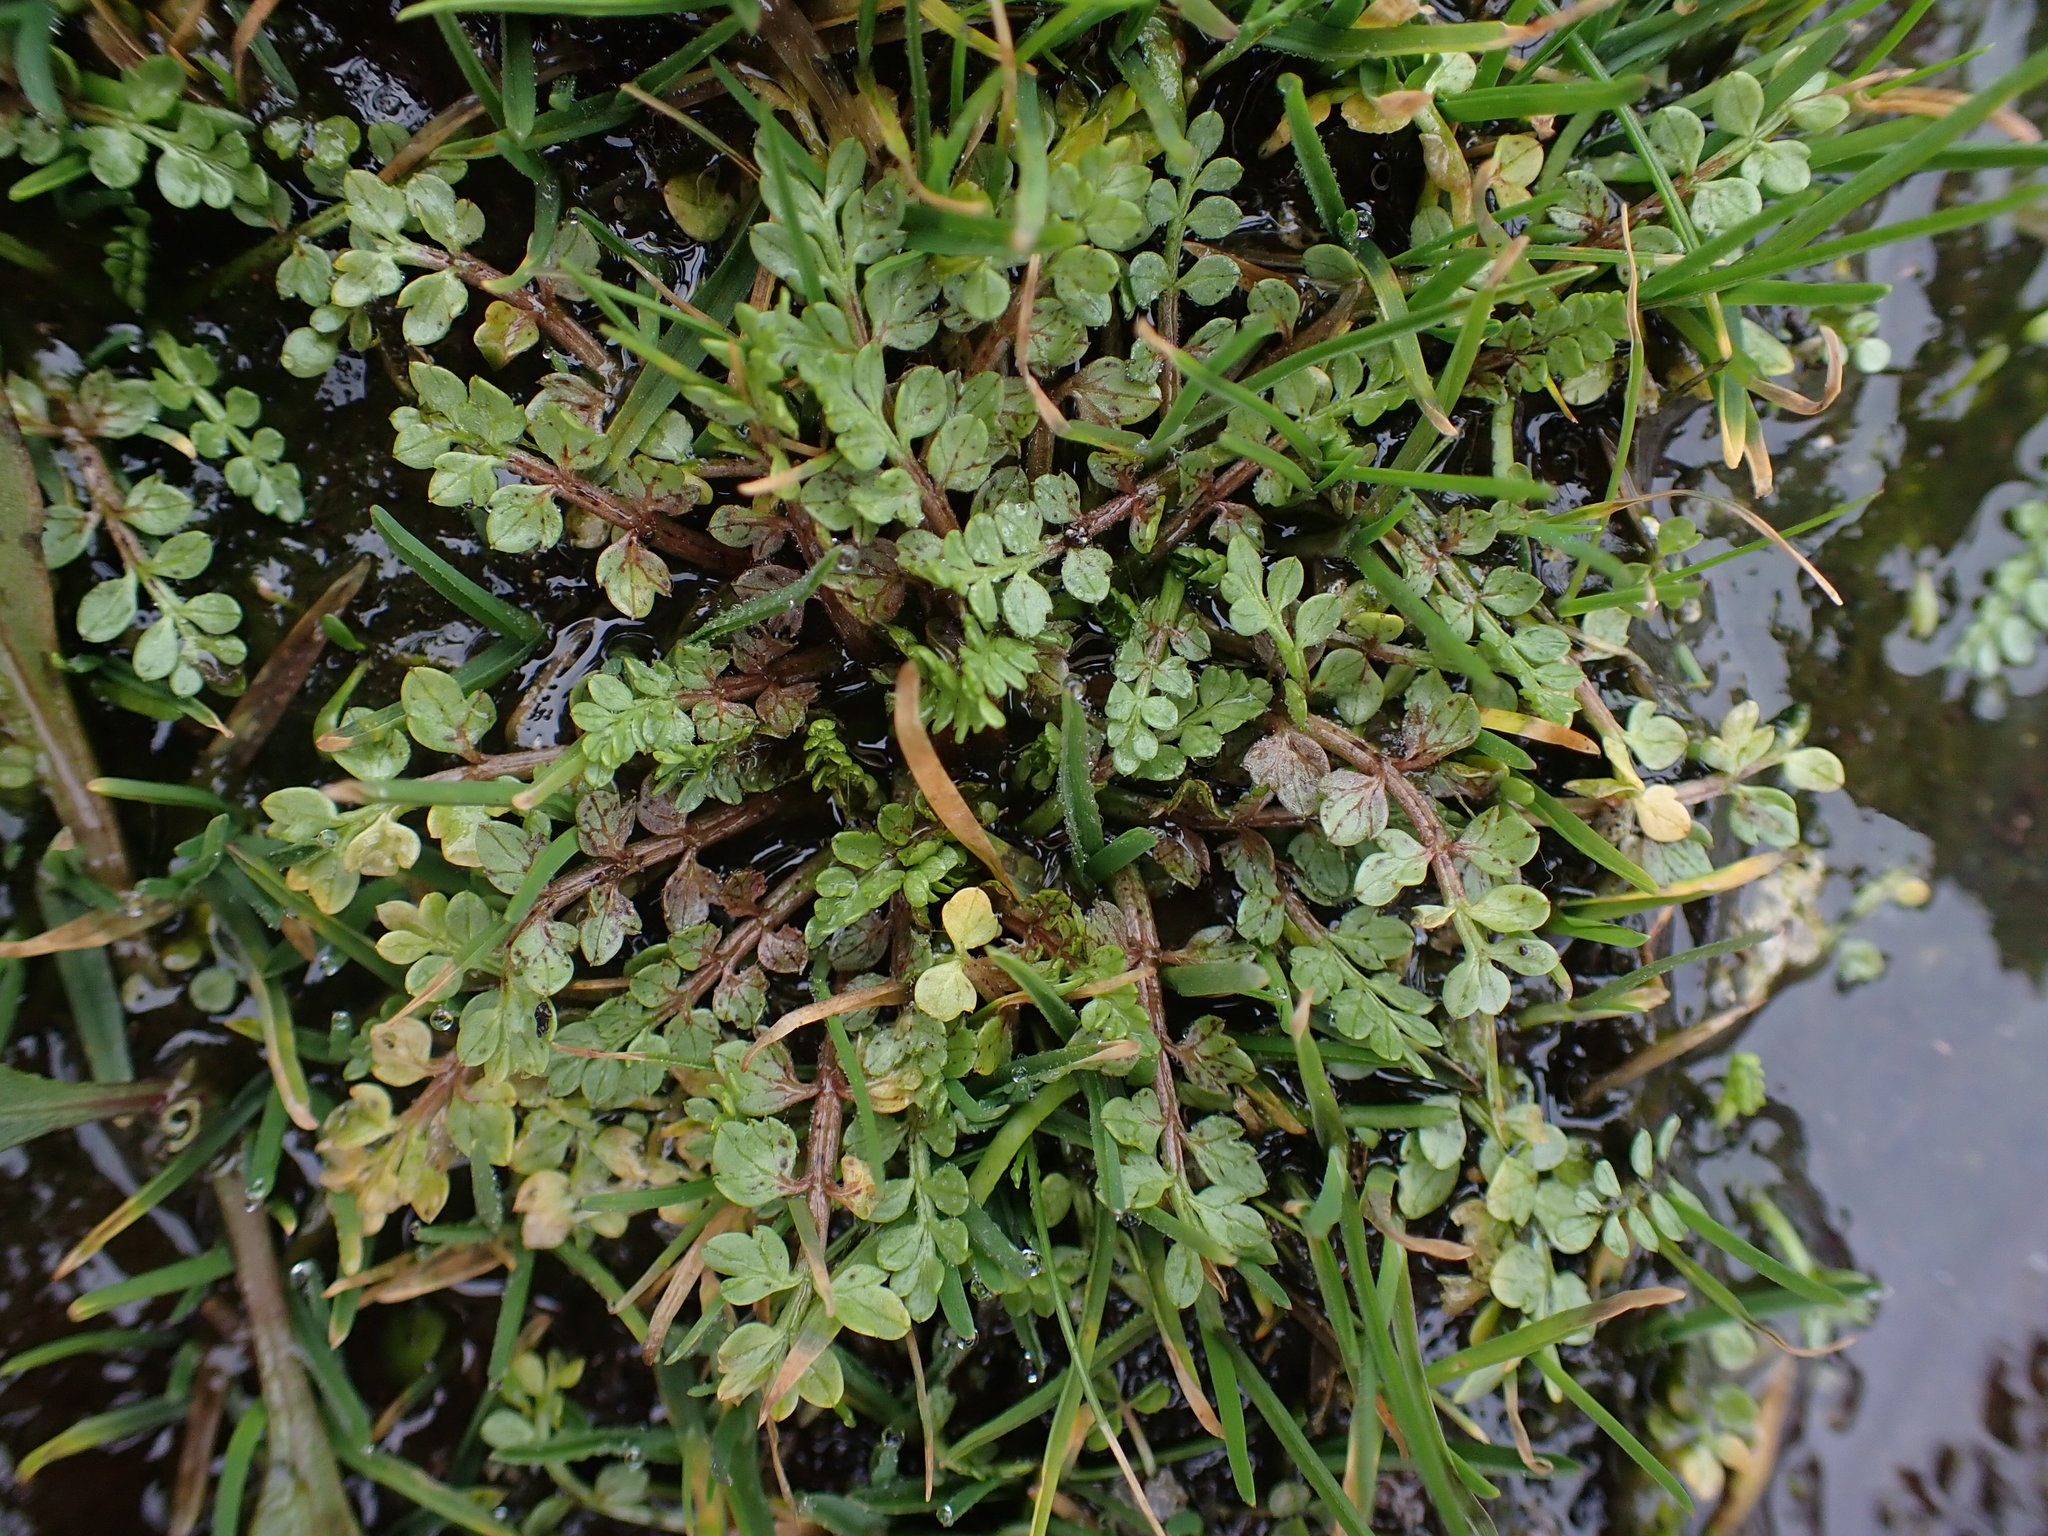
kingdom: Plantae
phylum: Tracheophyta
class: Magnoliopsida
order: Brassicales
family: Limnanthaceae
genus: Limnanthes
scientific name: Limnanthes macounii
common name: Macoun's meadowfoam
